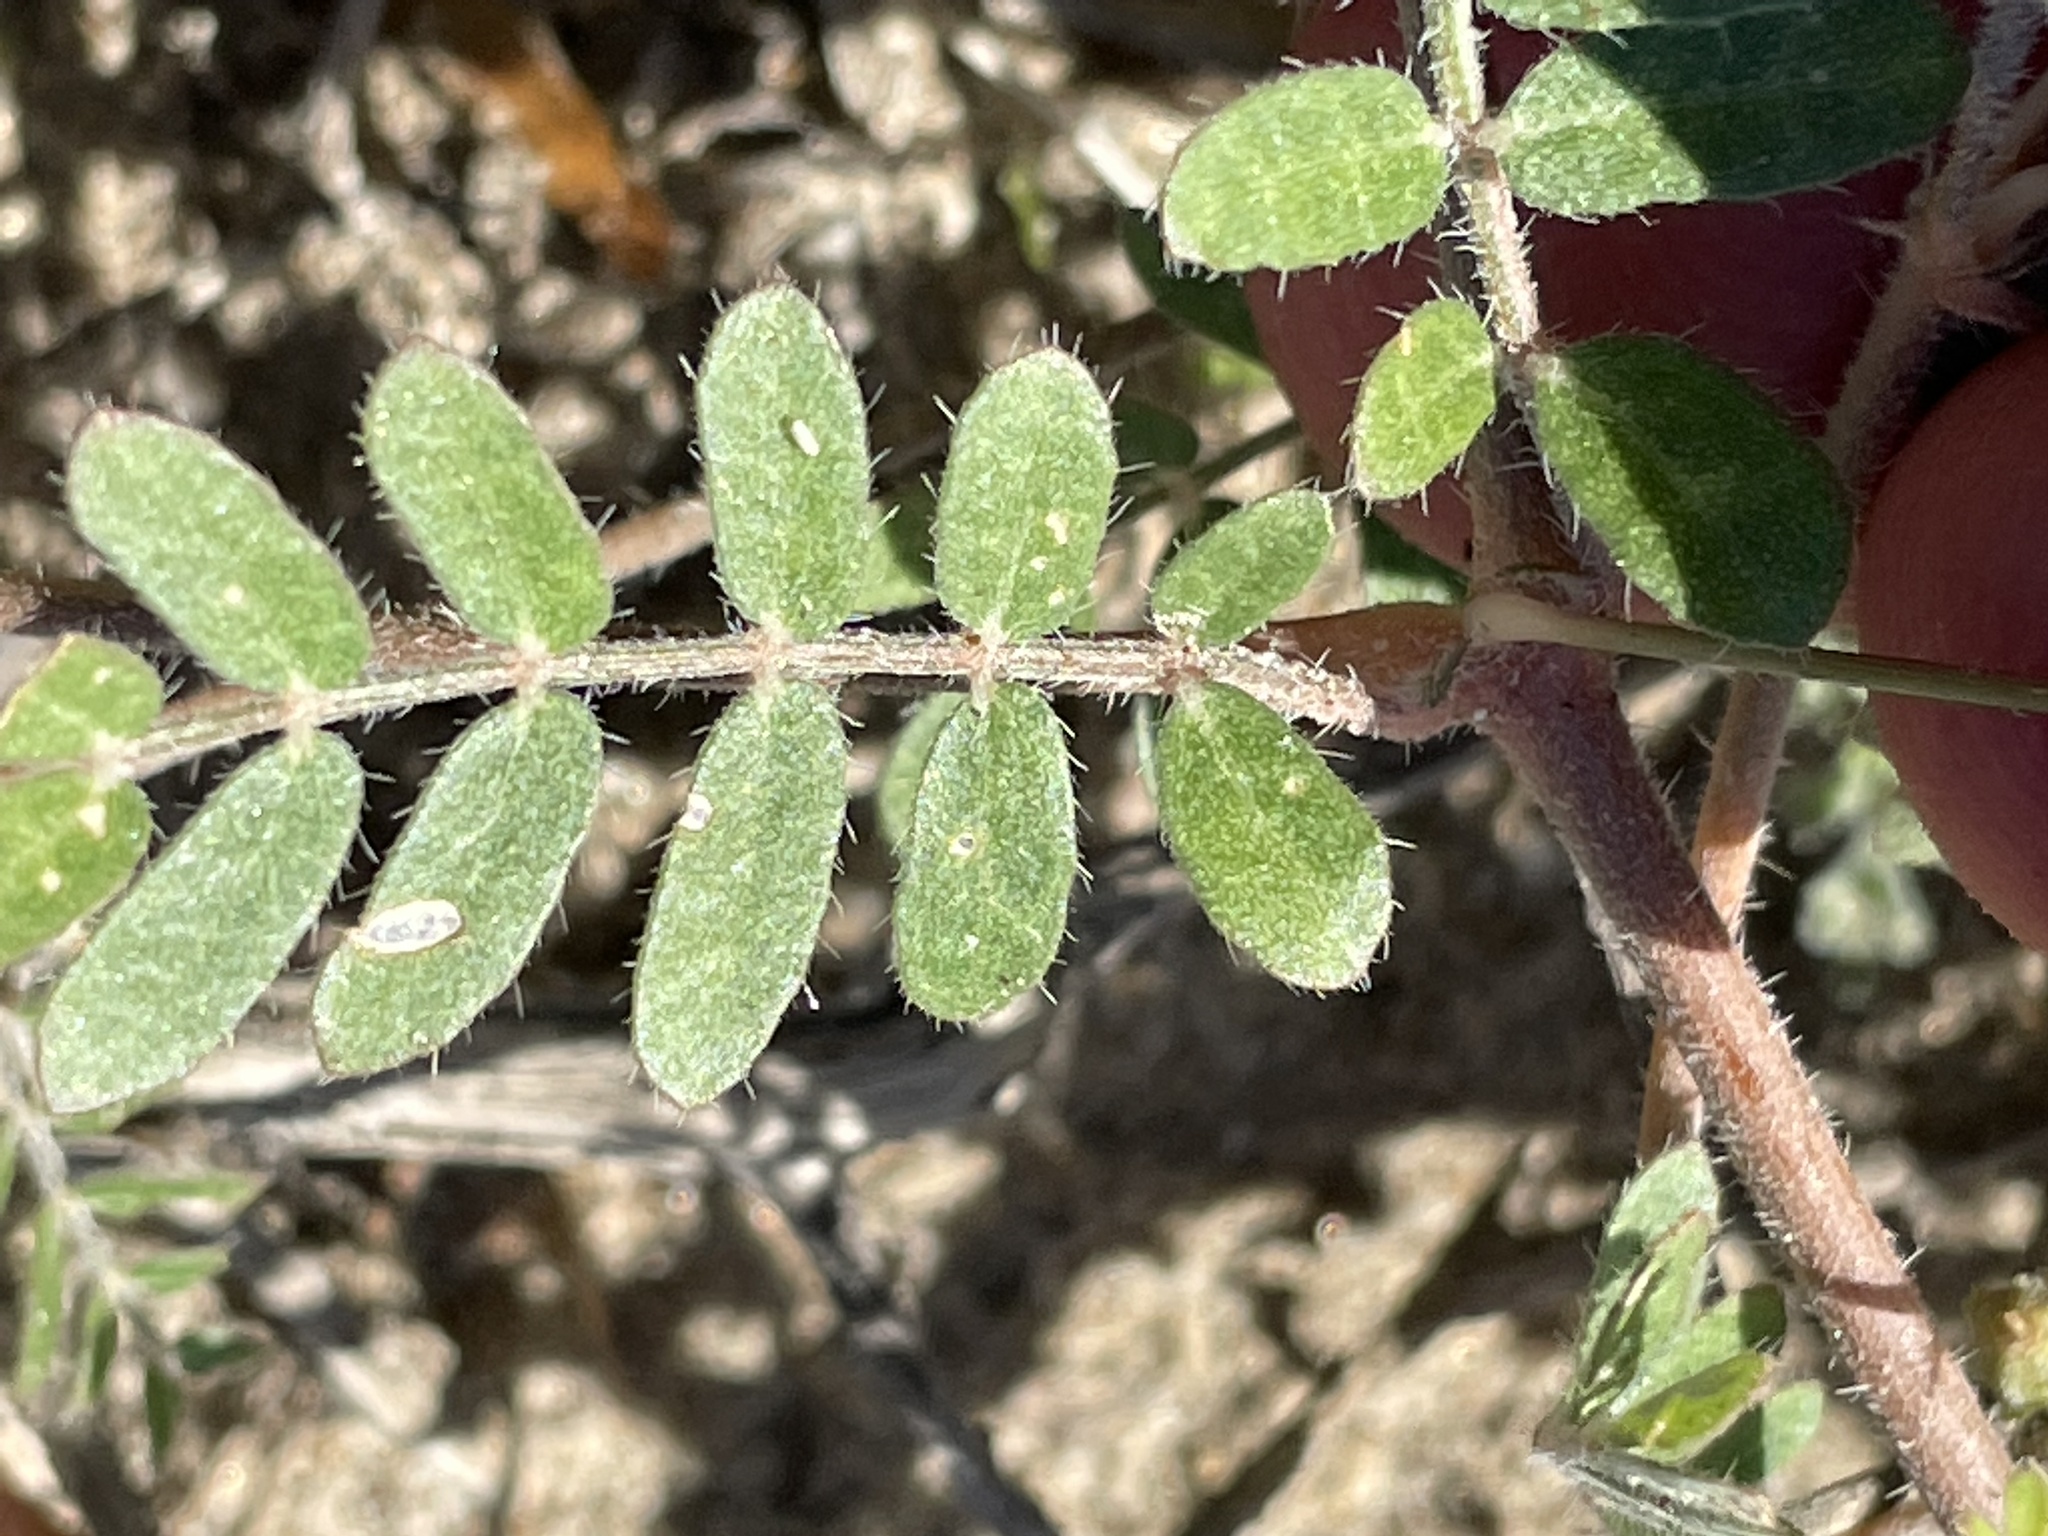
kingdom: Plantae
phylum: Tracheophyta
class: Magnoliopsida
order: Zygophyllales
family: Zygophyllaceae
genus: Kallstroemia
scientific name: Kallstroemia californica
